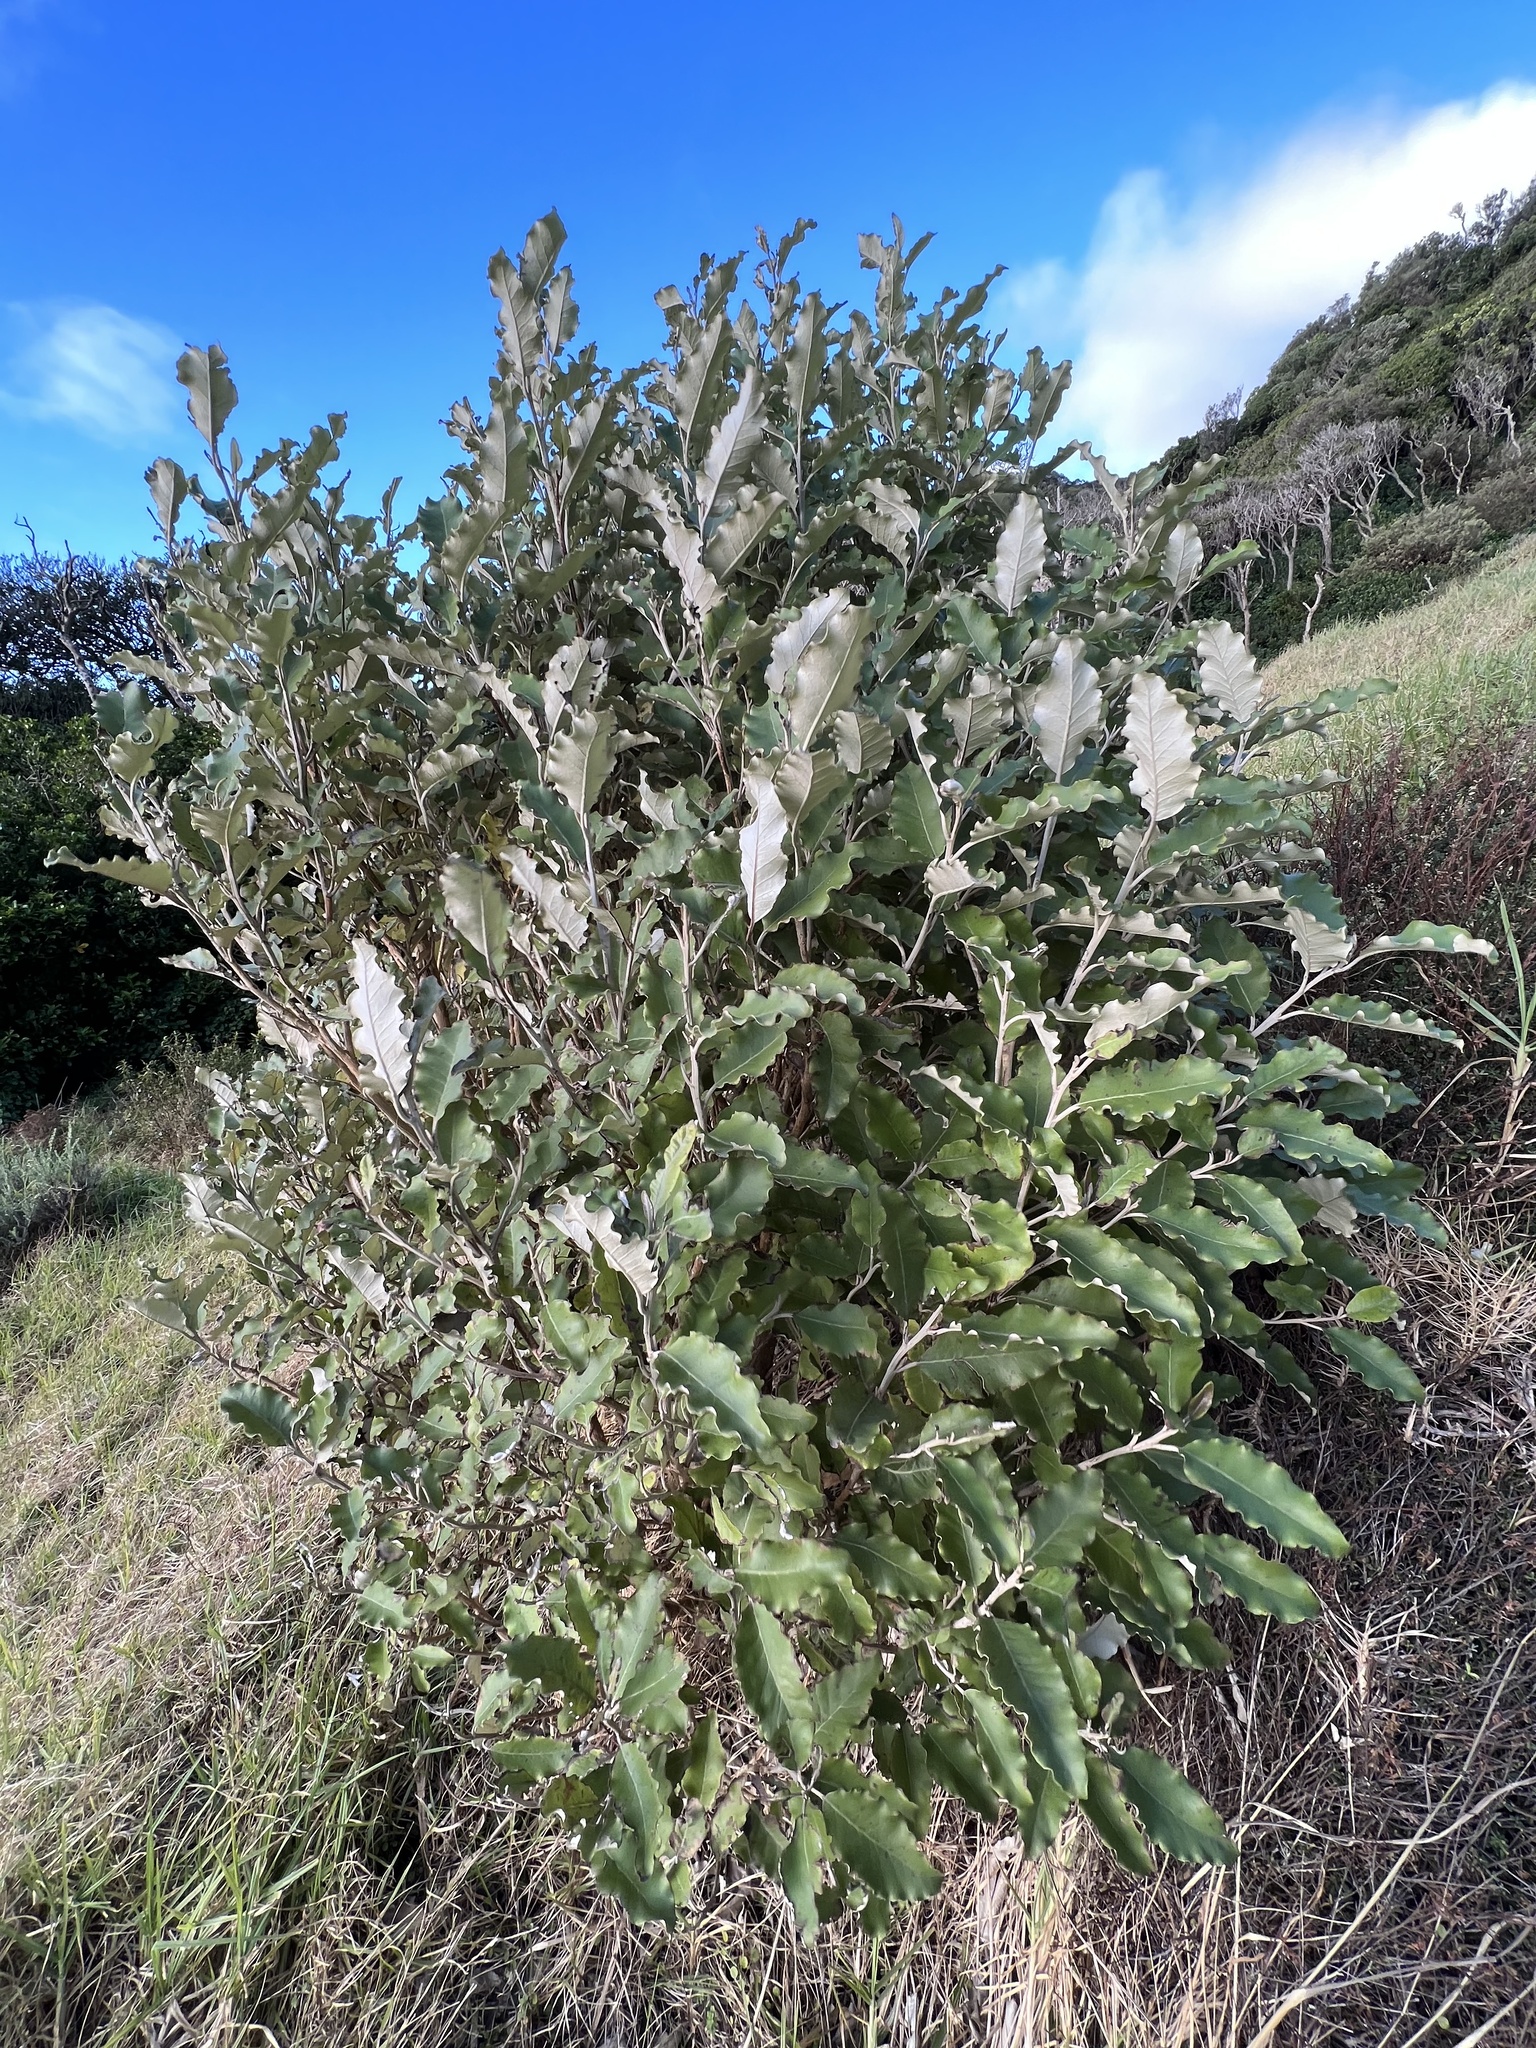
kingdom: Plantae
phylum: Tracheophyta
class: Magnoliopsida
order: Asterales
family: Asteraceae
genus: Olearia
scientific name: Olearia angulata
